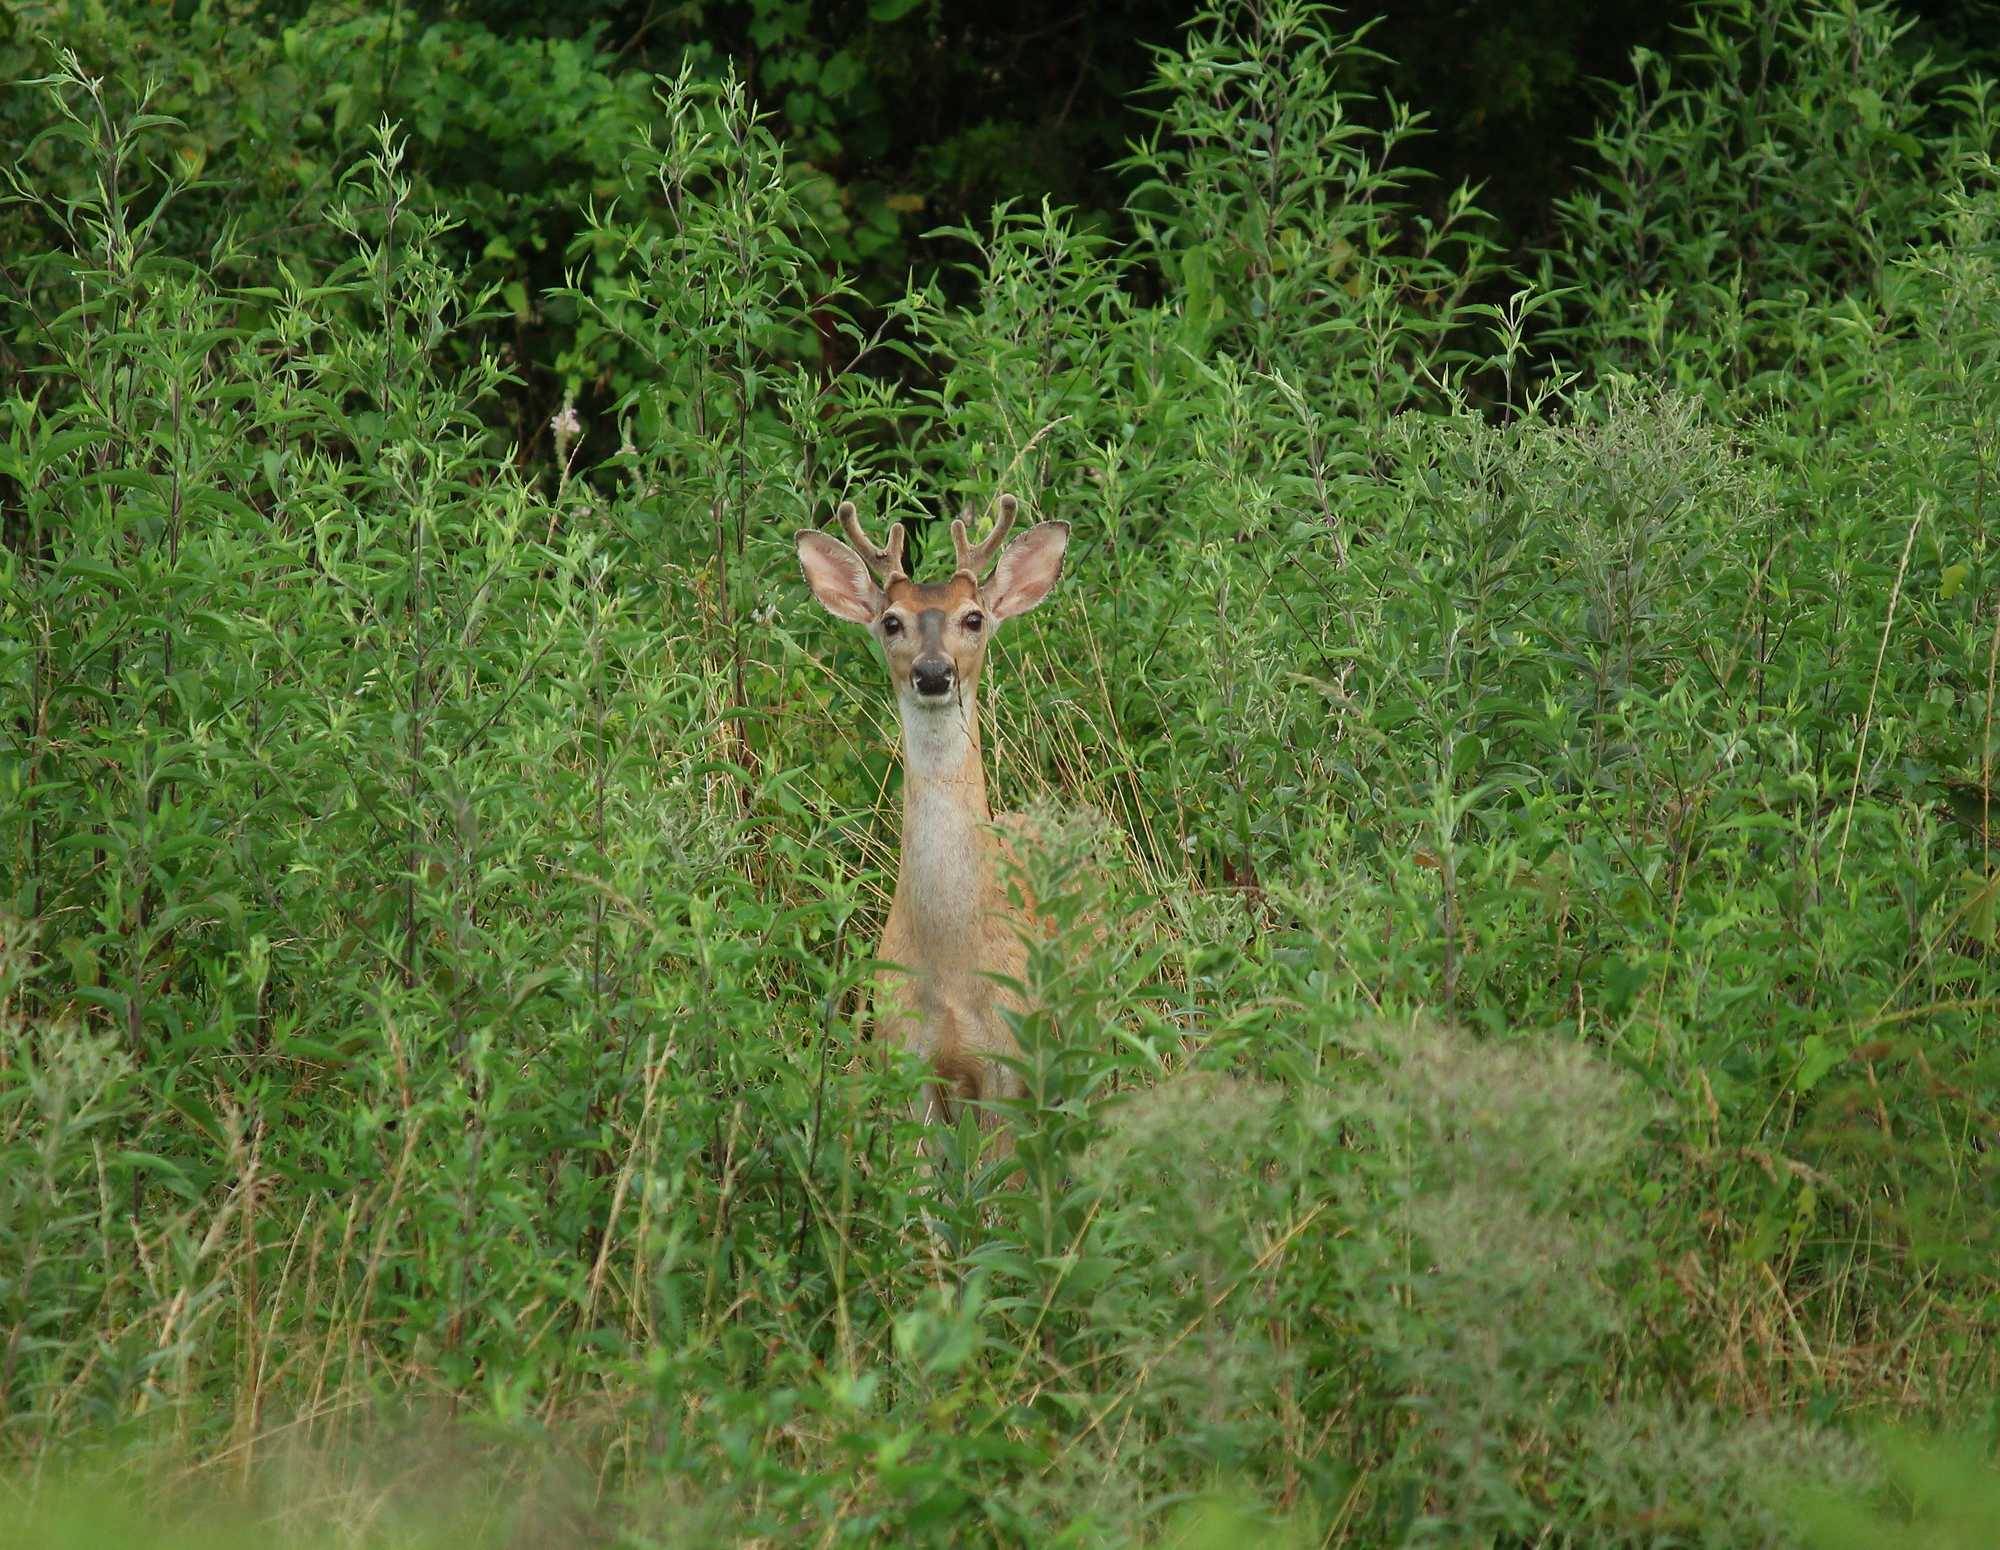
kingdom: Animalia
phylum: Chordata
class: Mammalia
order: Artiodactyla
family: Cervidae
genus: Odocoileus
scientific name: Odocoileus virginianus
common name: White-tailed deer
